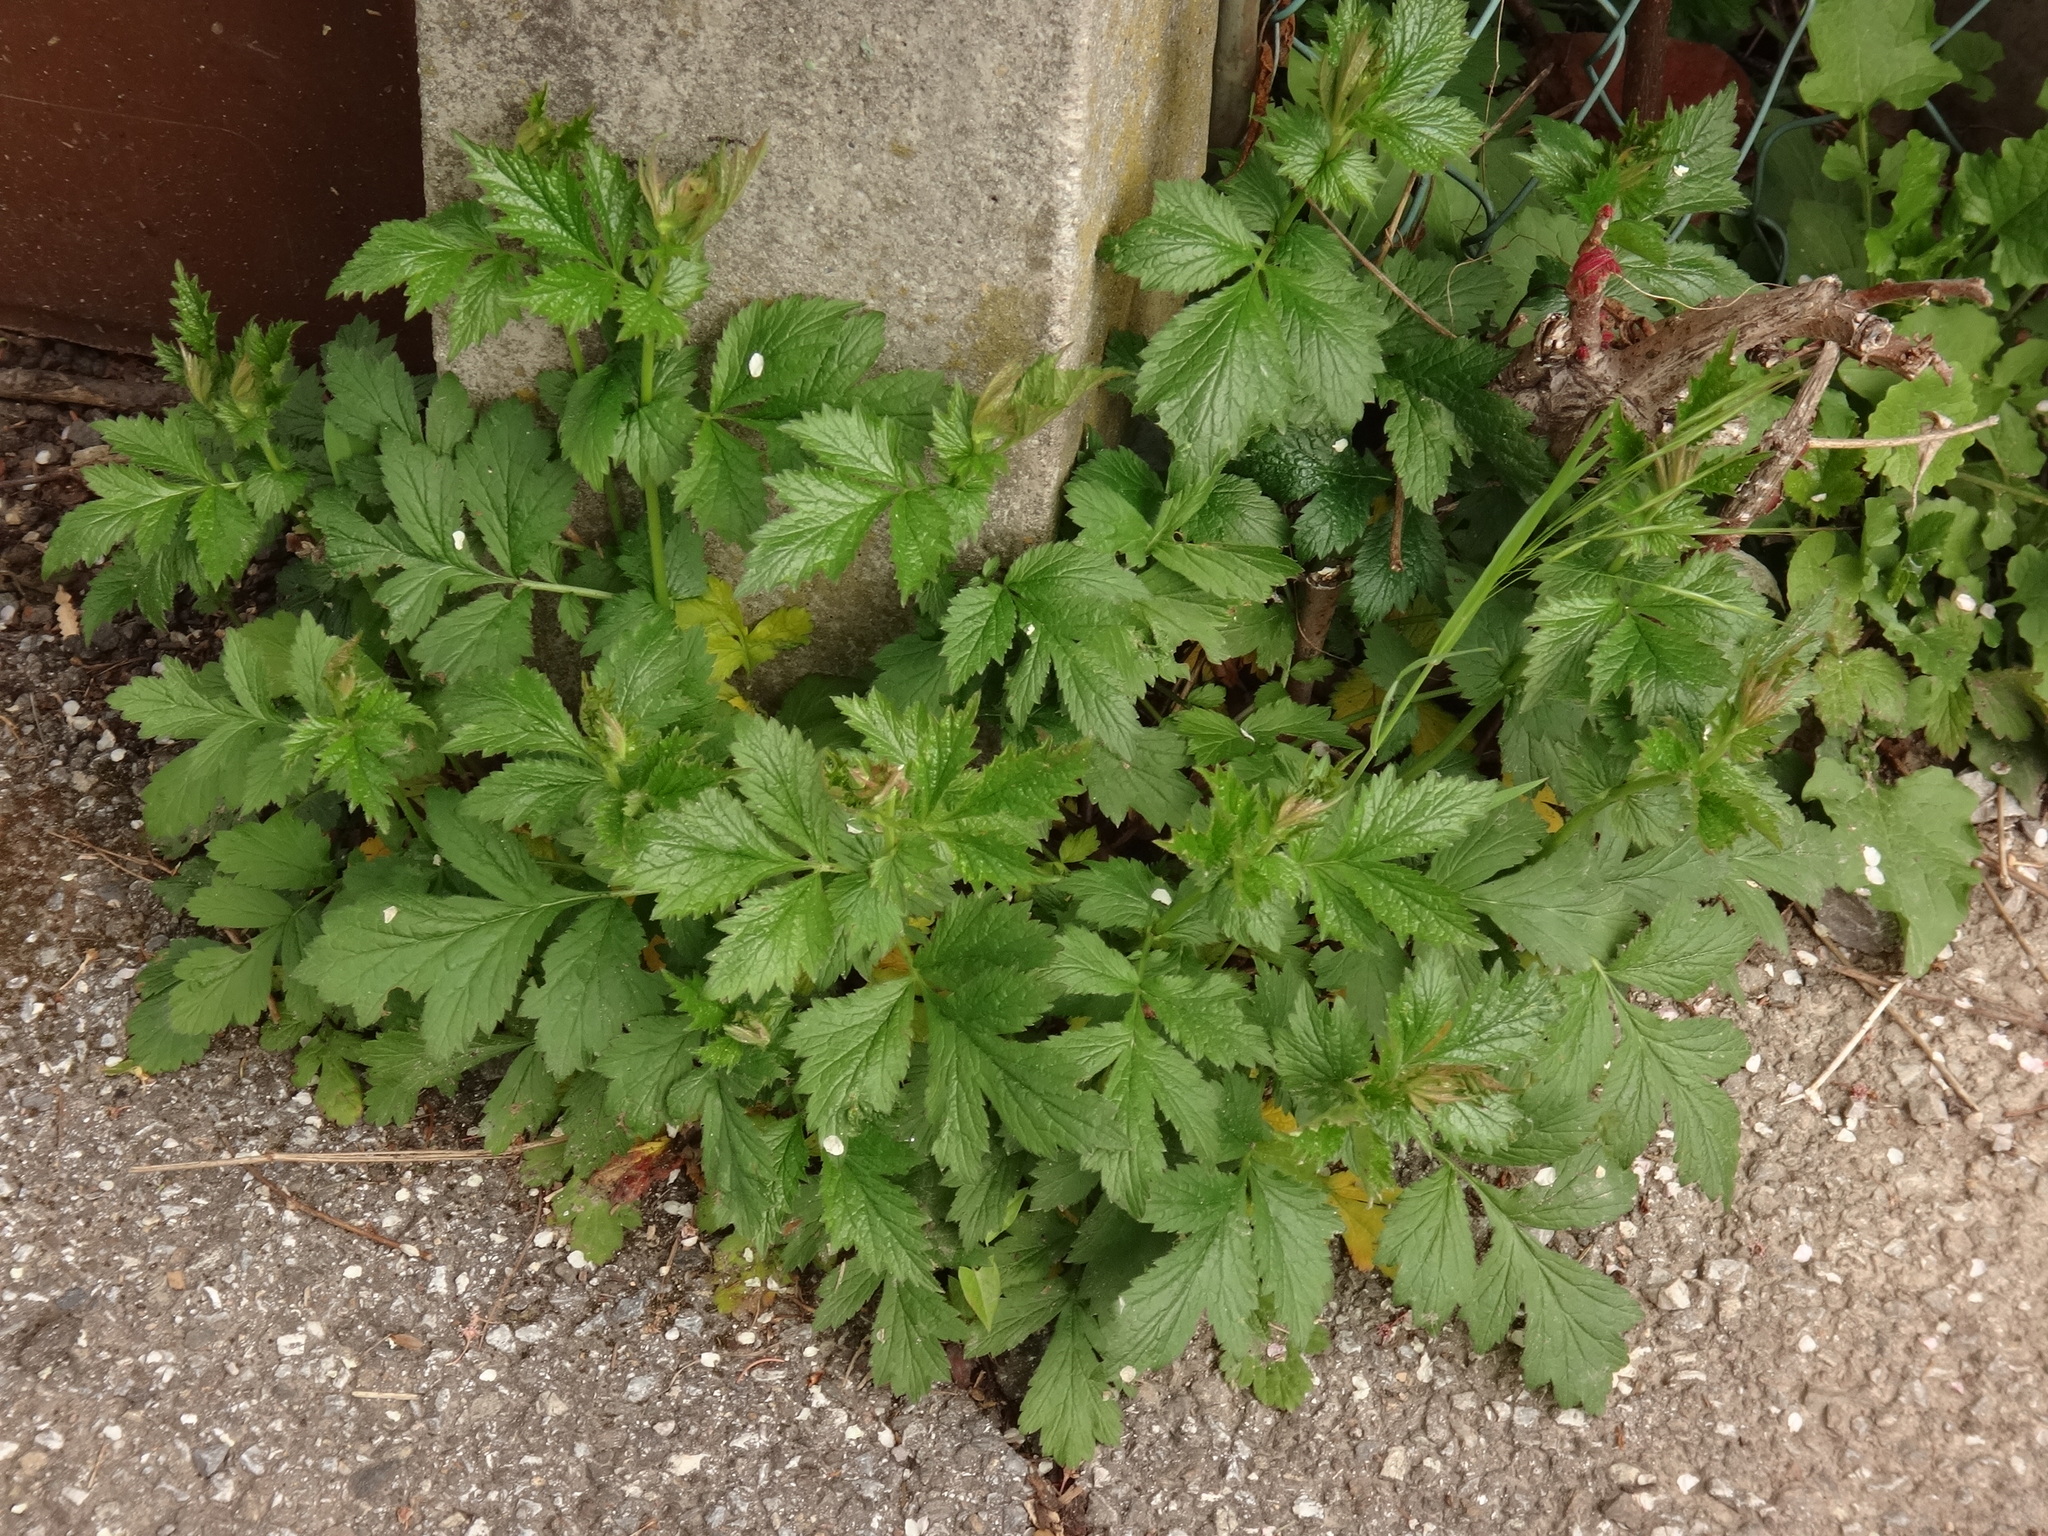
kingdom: Plantae
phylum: Tracheophyta
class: Magnoliopsida
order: Rosales
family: Rosaceae
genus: Geum
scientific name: Geum urbanum
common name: Wood avens
